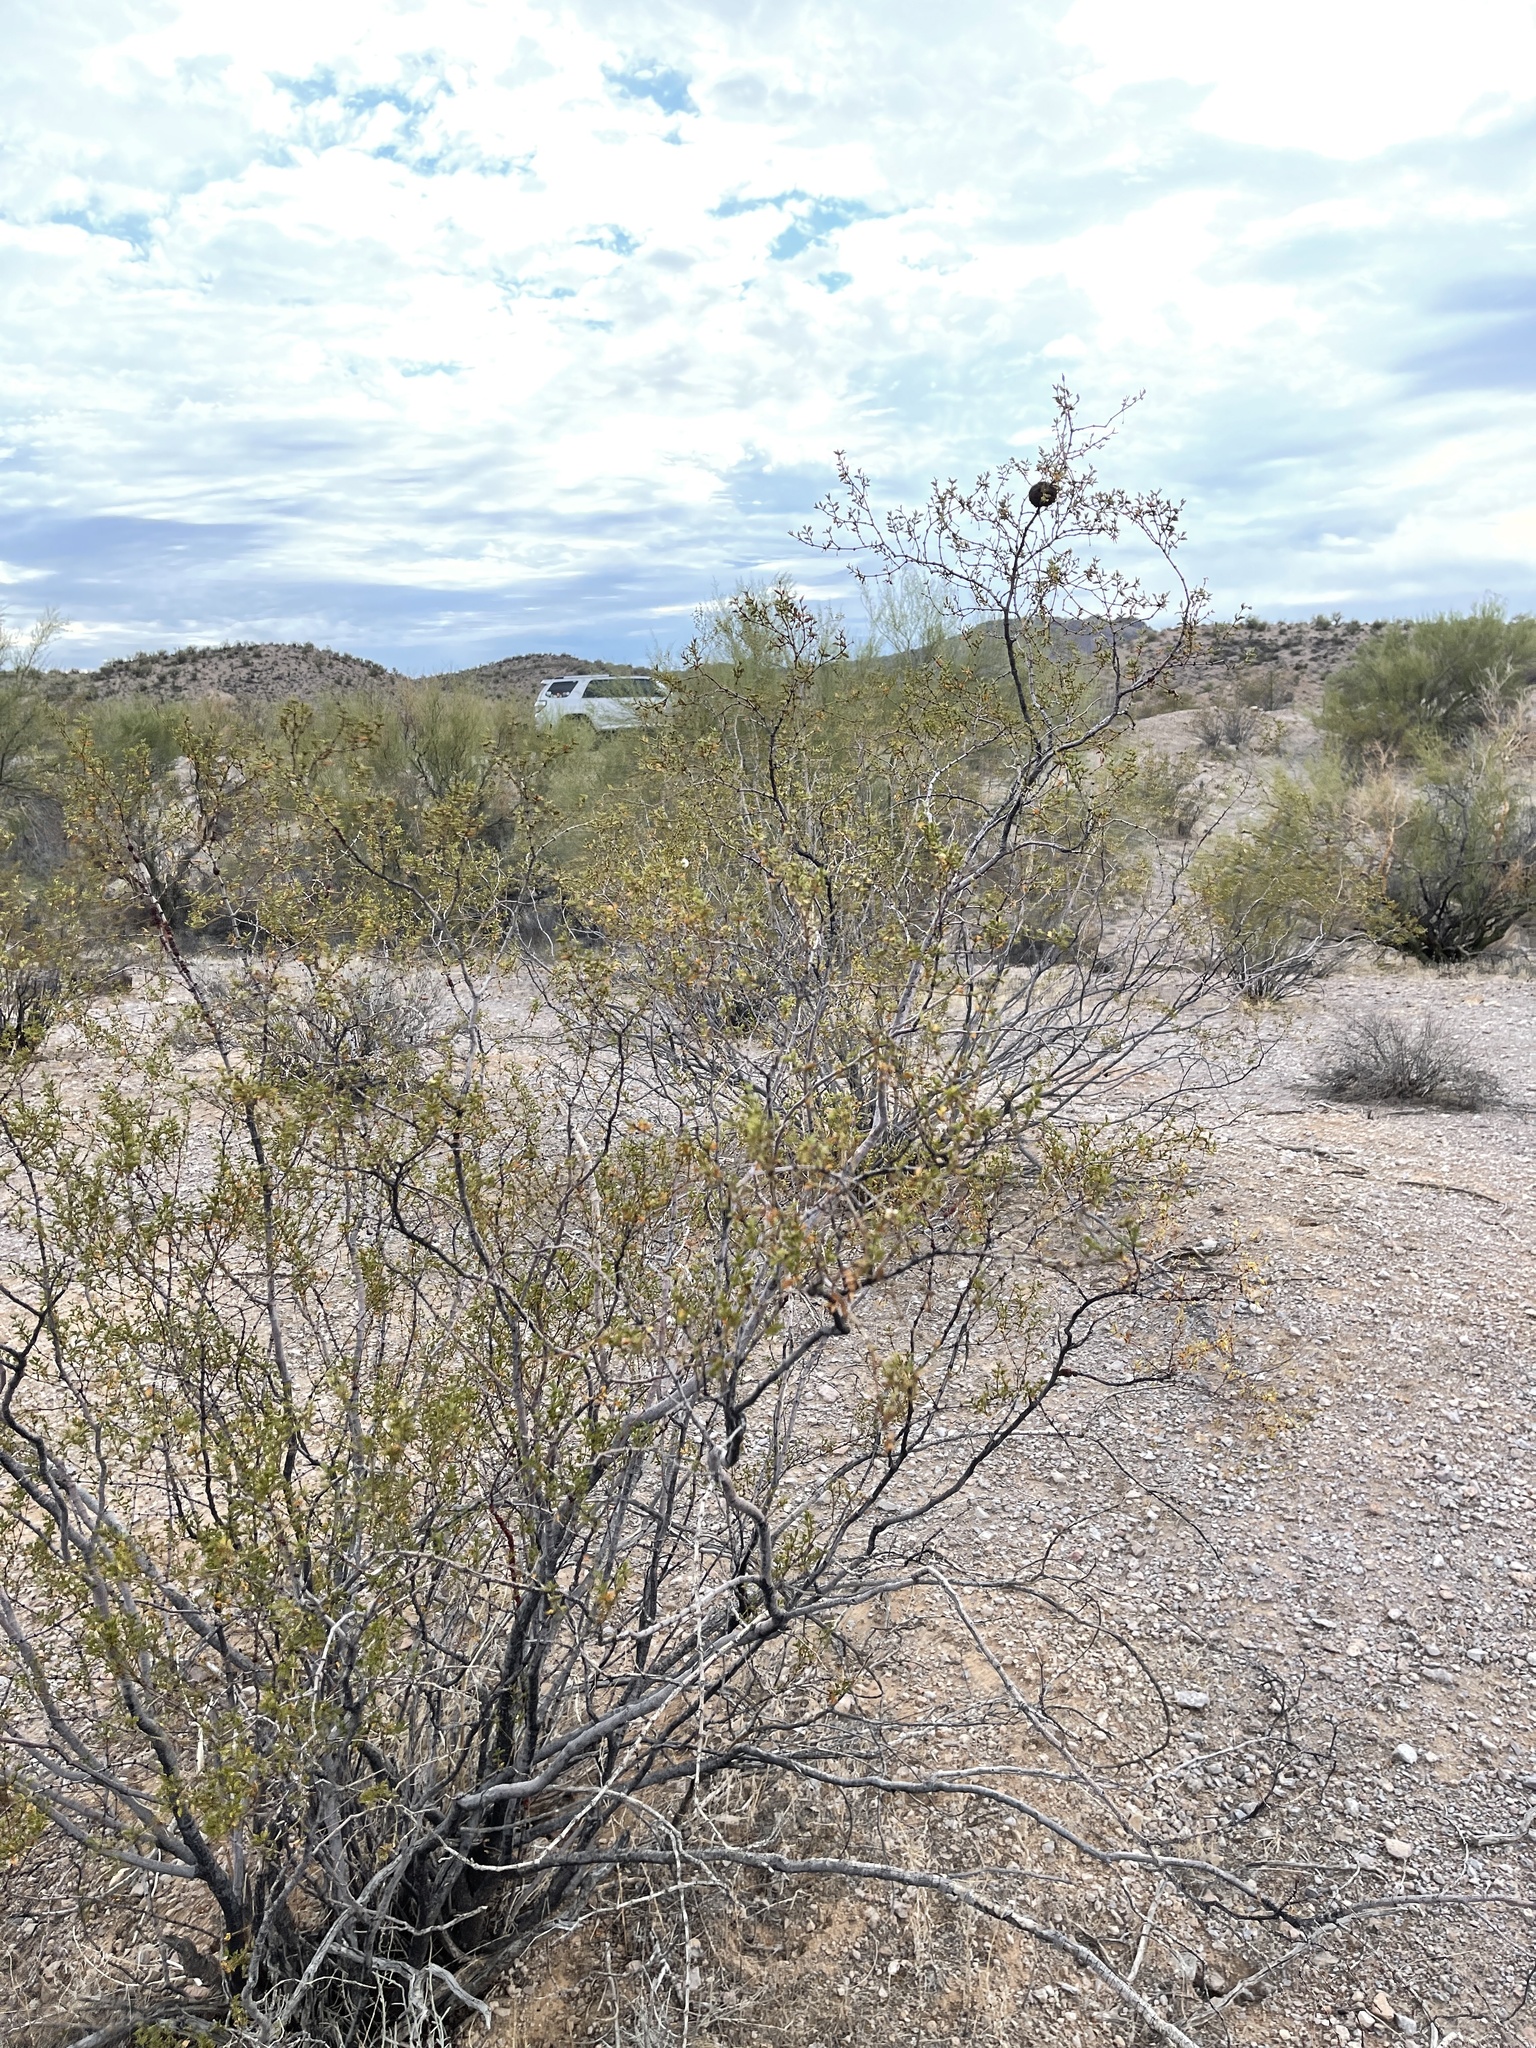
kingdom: Plantae
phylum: Tracheophyta
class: Magnoliopsida
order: Zygophyllales
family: Zygophyllaceae
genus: Larrea
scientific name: Larrea tridentata
